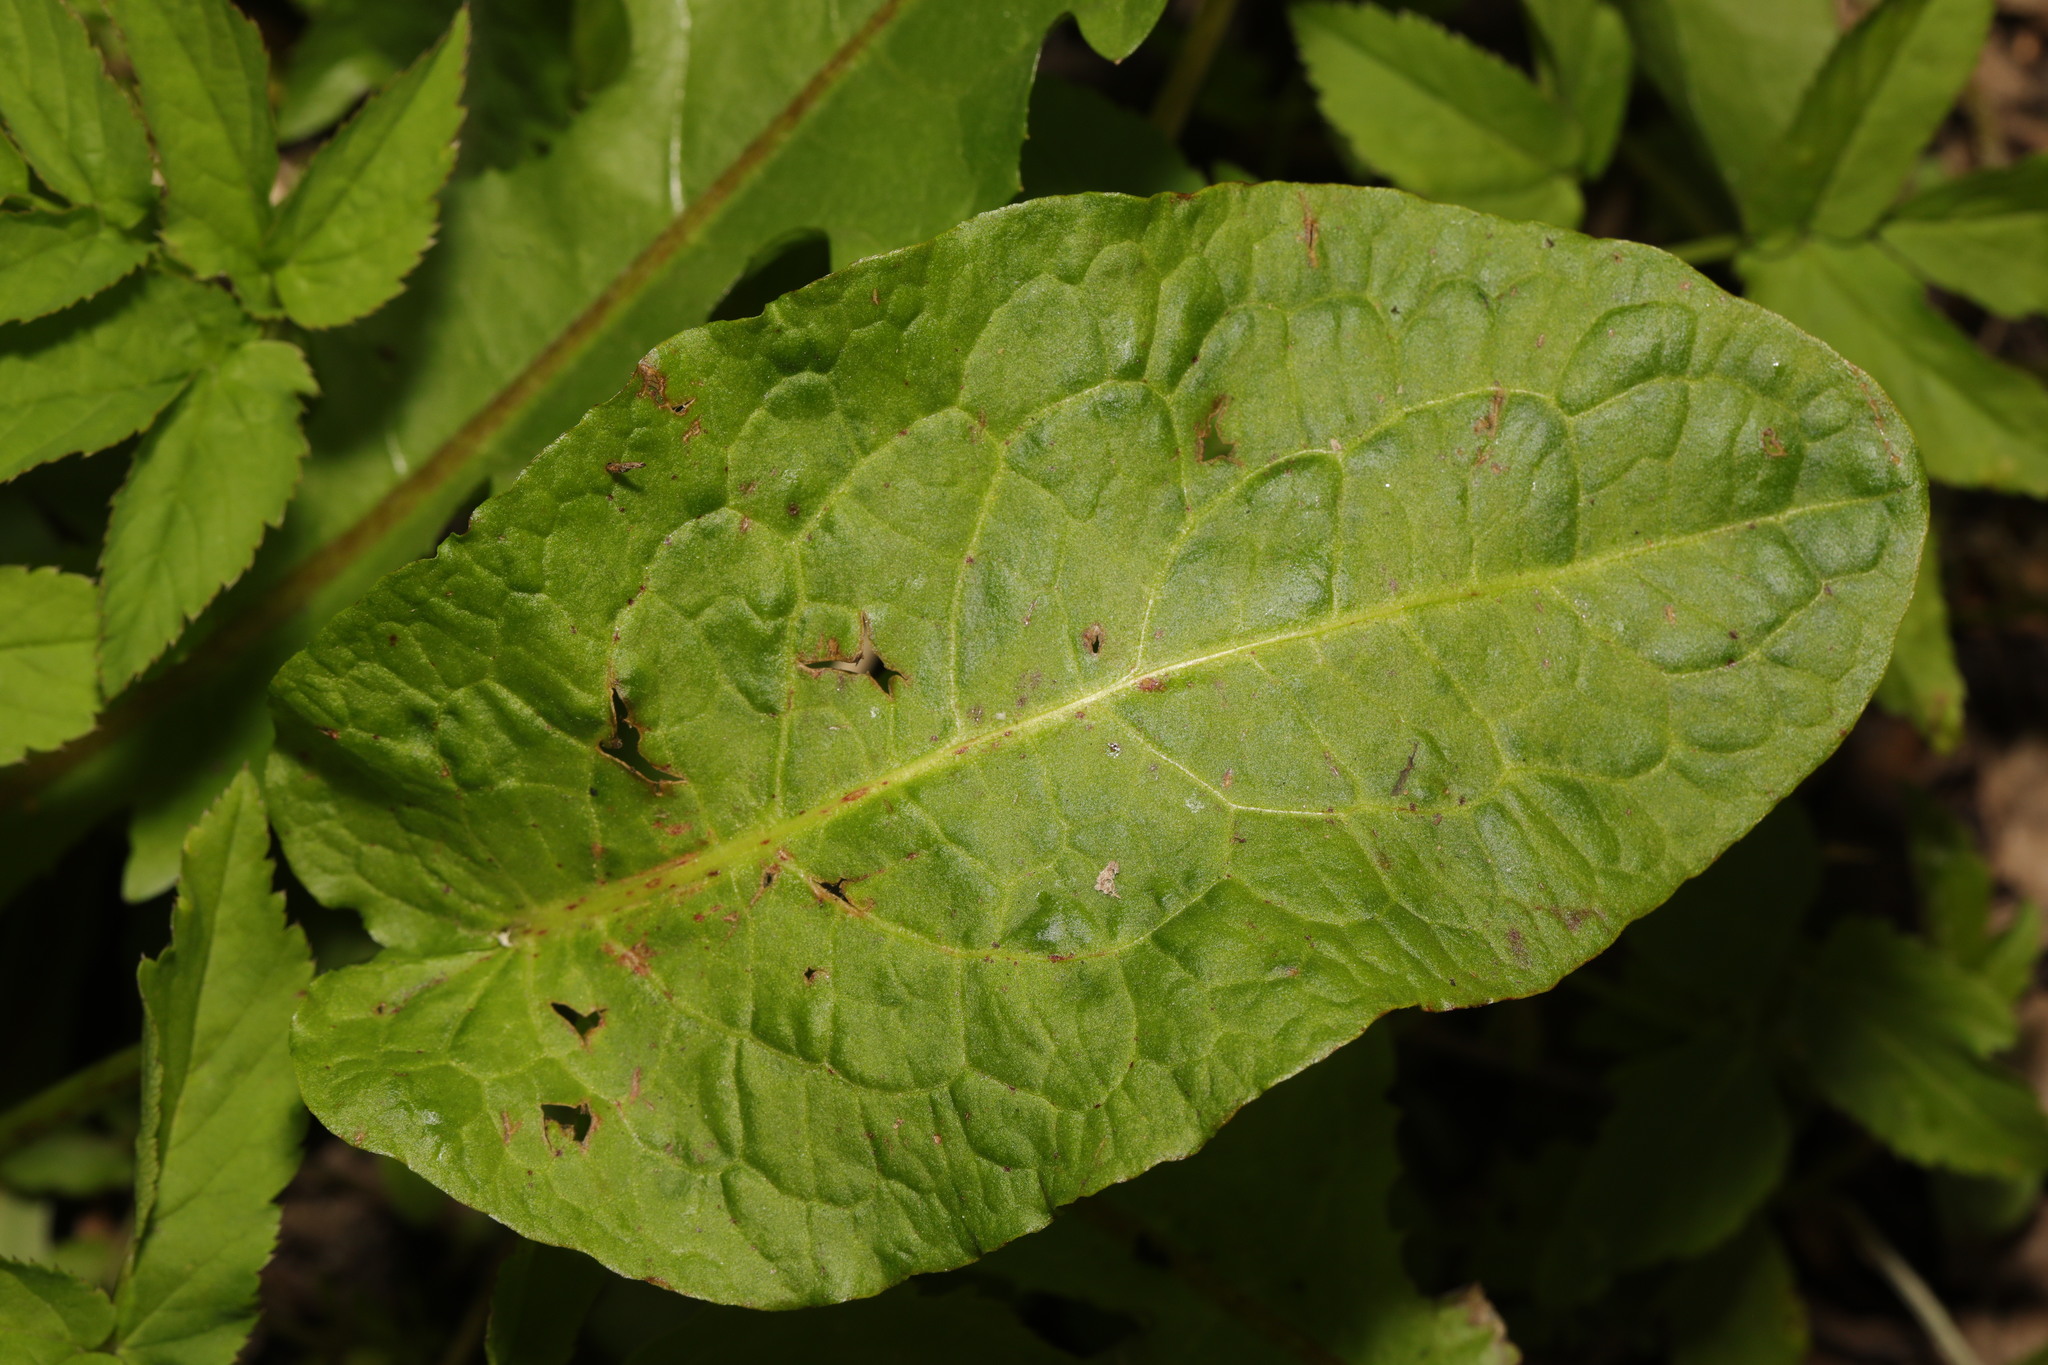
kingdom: Plantae
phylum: Tracheophyta
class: Magnoliopsida
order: Caryophyllales
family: Polygonaceae
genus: Rumex
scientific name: Rumex obtusifolius
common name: Bitter dock
